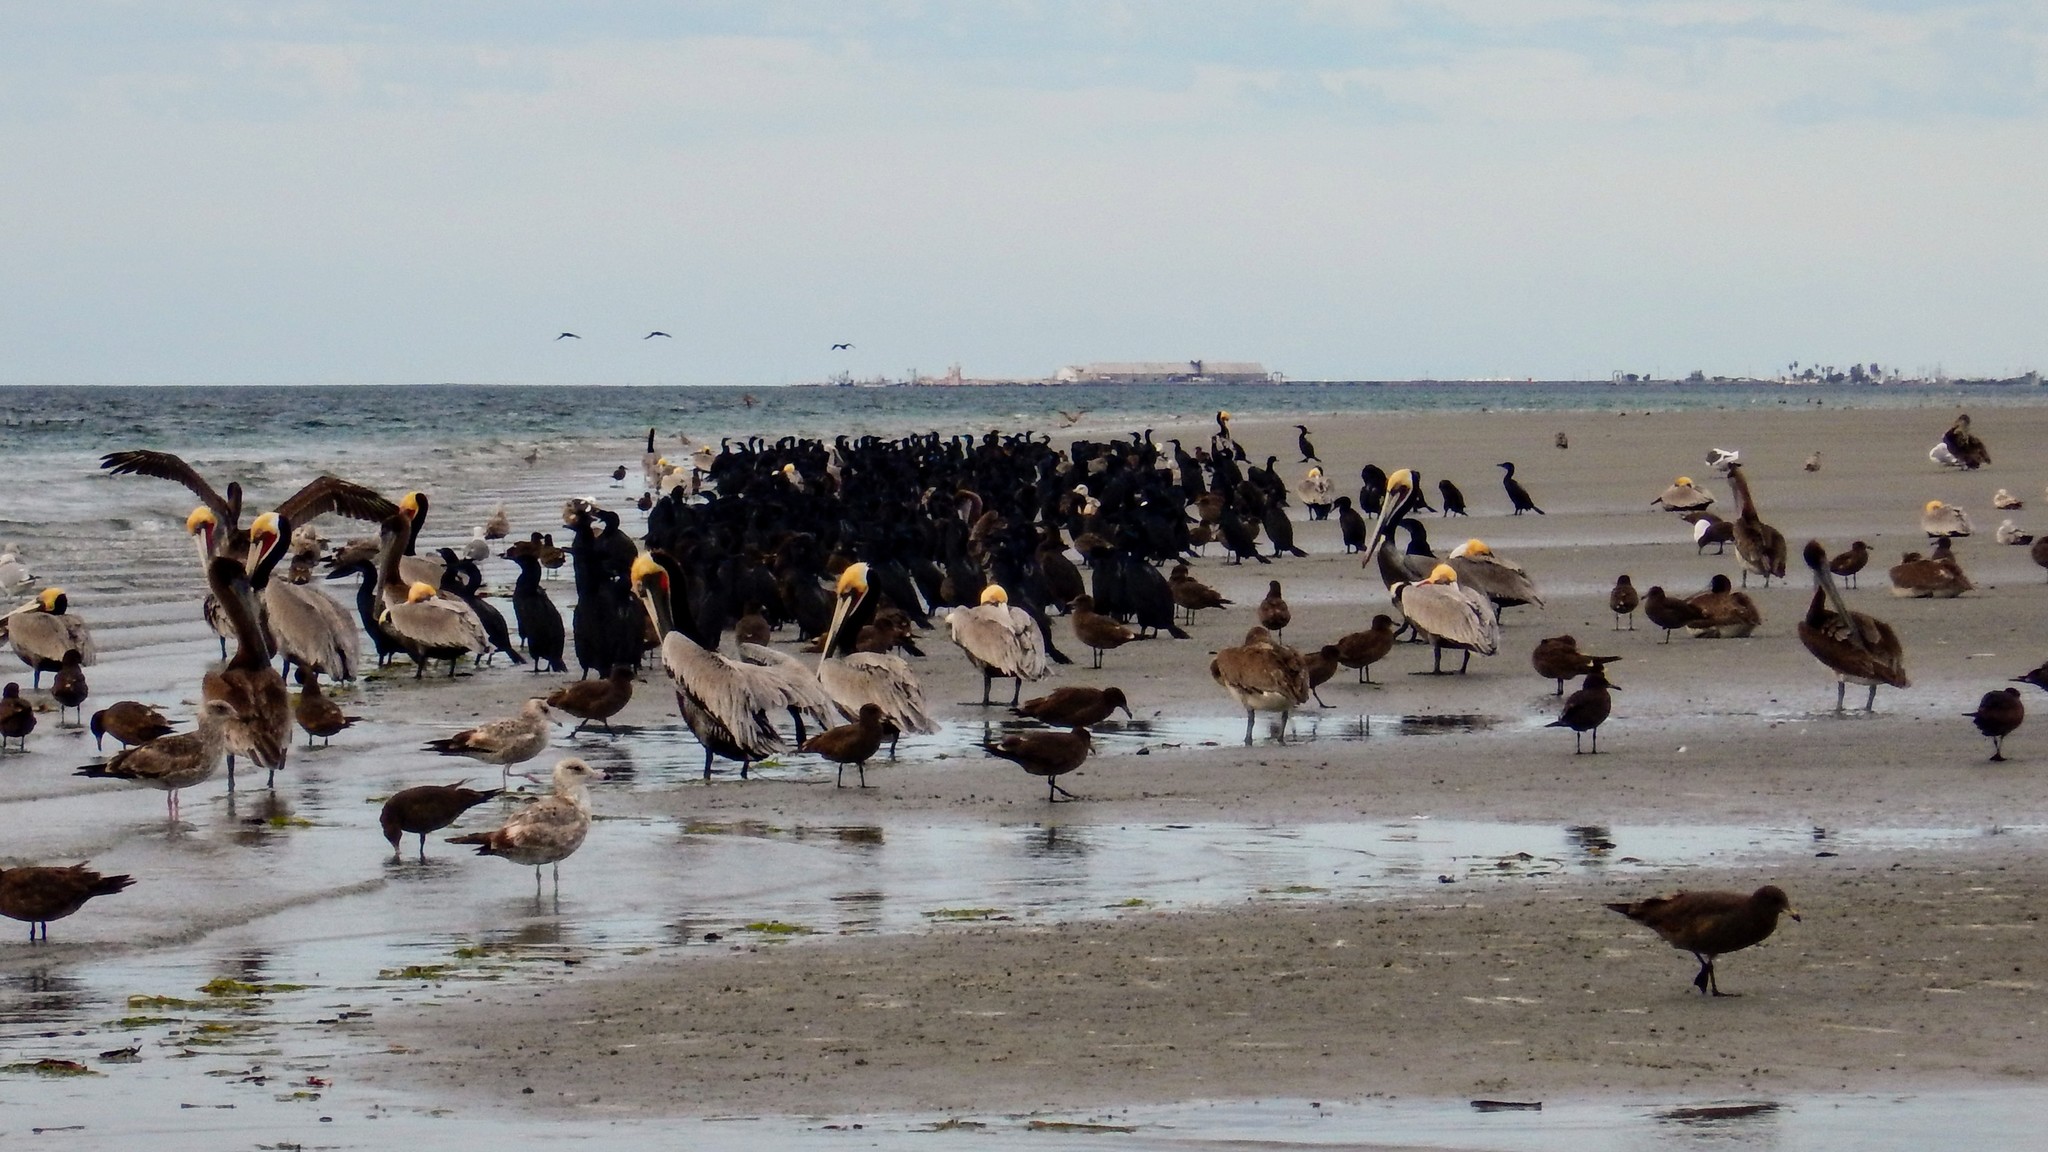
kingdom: Animalia
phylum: Chordata
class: Aves
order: Pelecaniformes
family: Pelecanidae
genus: Pelecanus
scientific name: Pelecanus occidentalis
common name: Brown pelican
